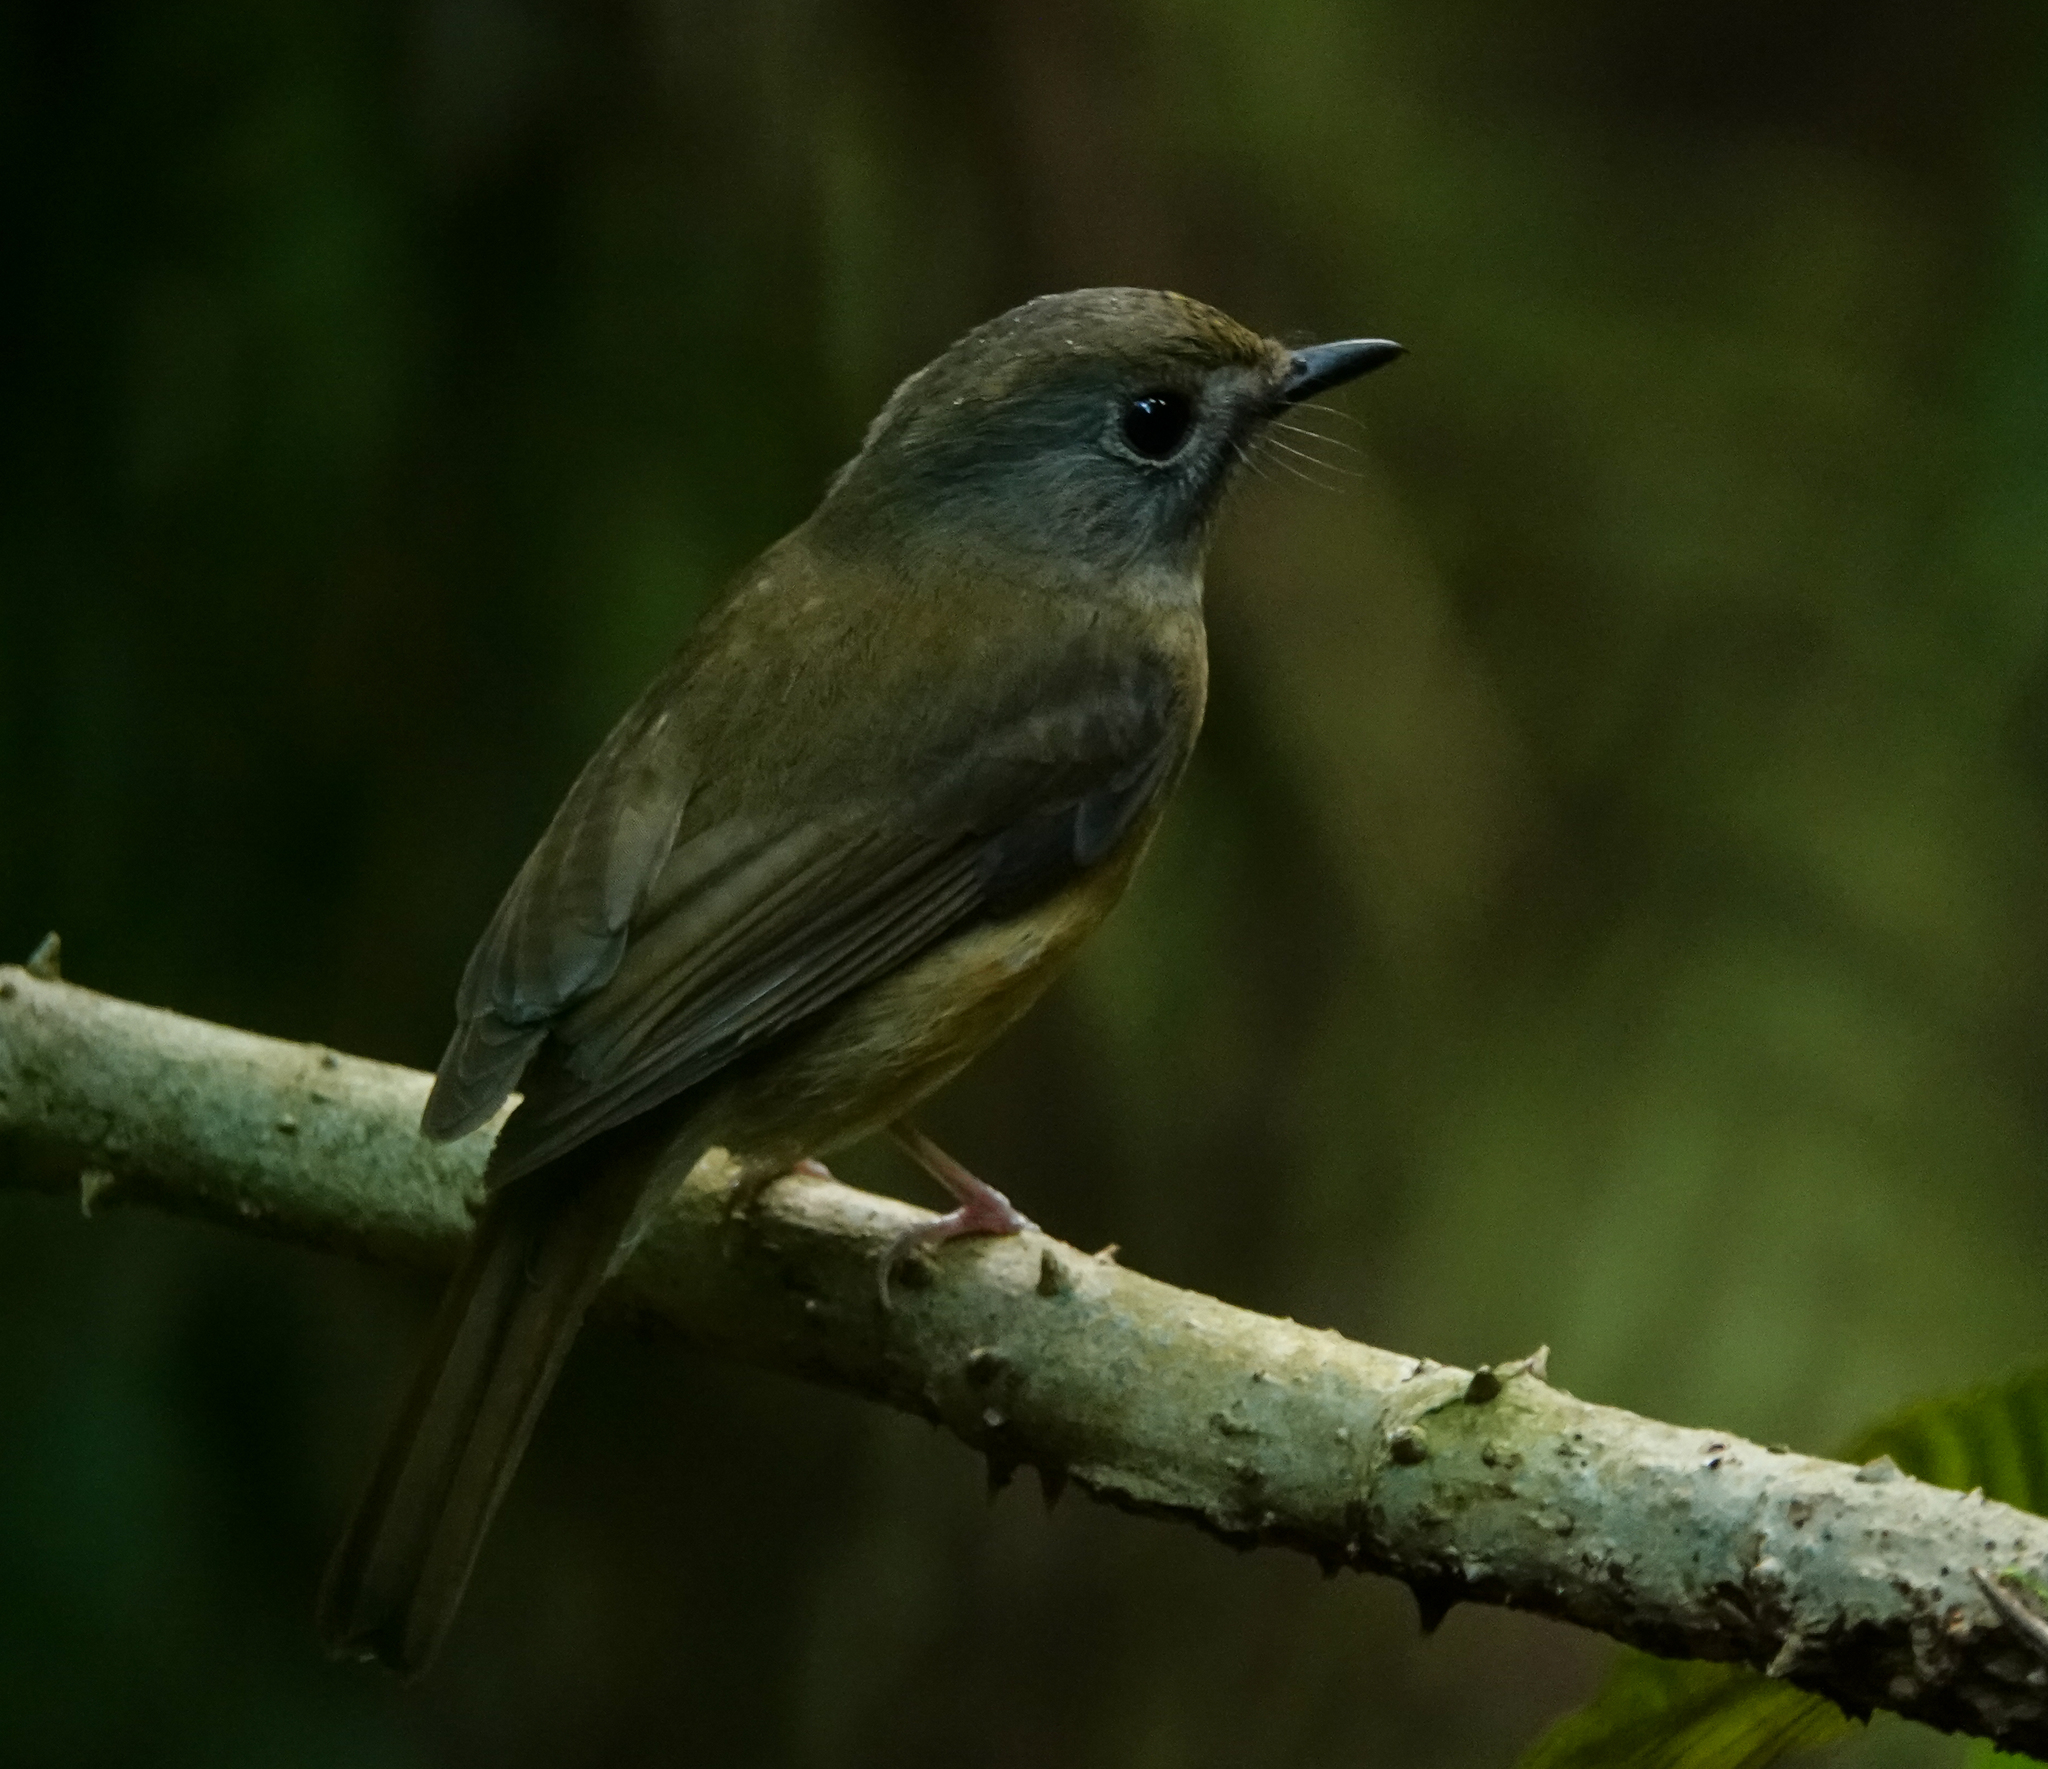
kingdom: Animalia
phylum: Chordata
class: Aves
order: Passeriformes
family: Muscicapidae
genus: Cyornis
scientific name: Cyornis poliogenys
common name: Pale-chinned blue flycatcher
